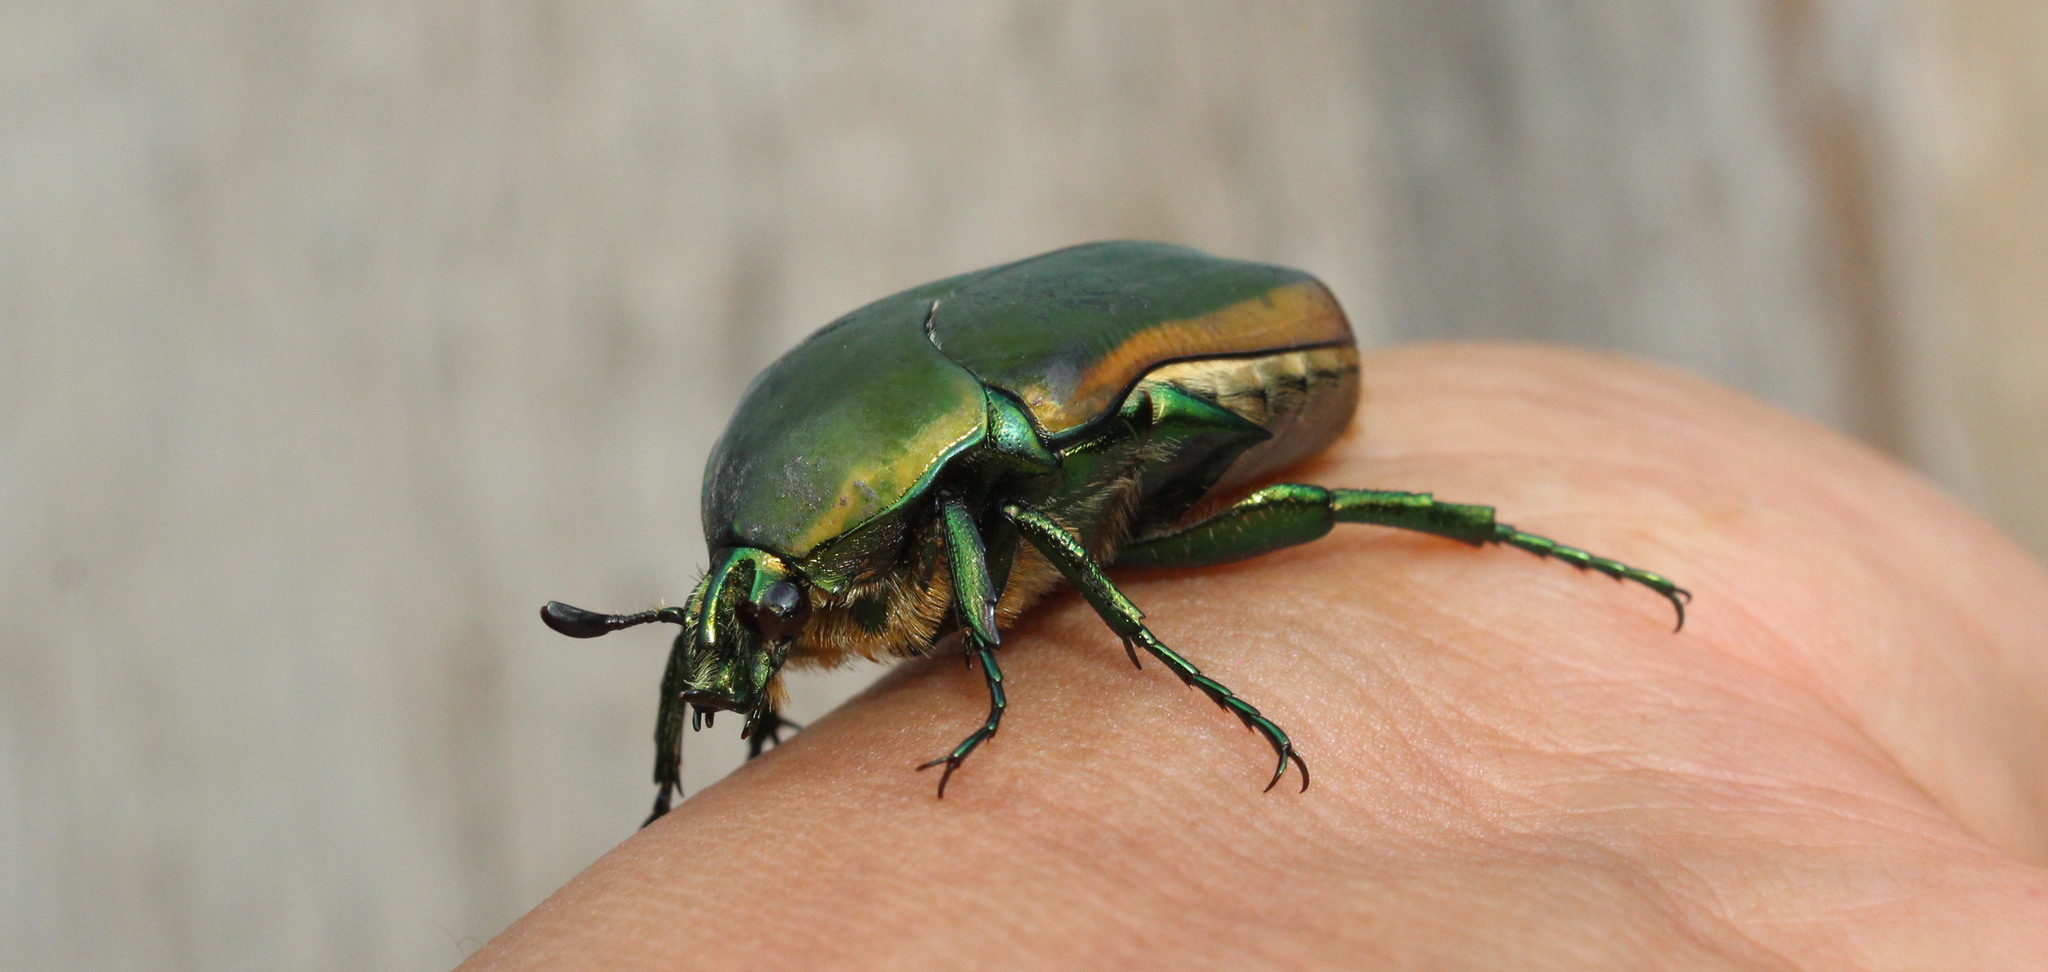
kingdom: Animalia
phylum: Arthropoda
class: Insecta
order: Coleoptera
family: Scarabaeidae
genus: Cotinis
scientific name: Cotinis mutabilis
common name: Figeater beetle
